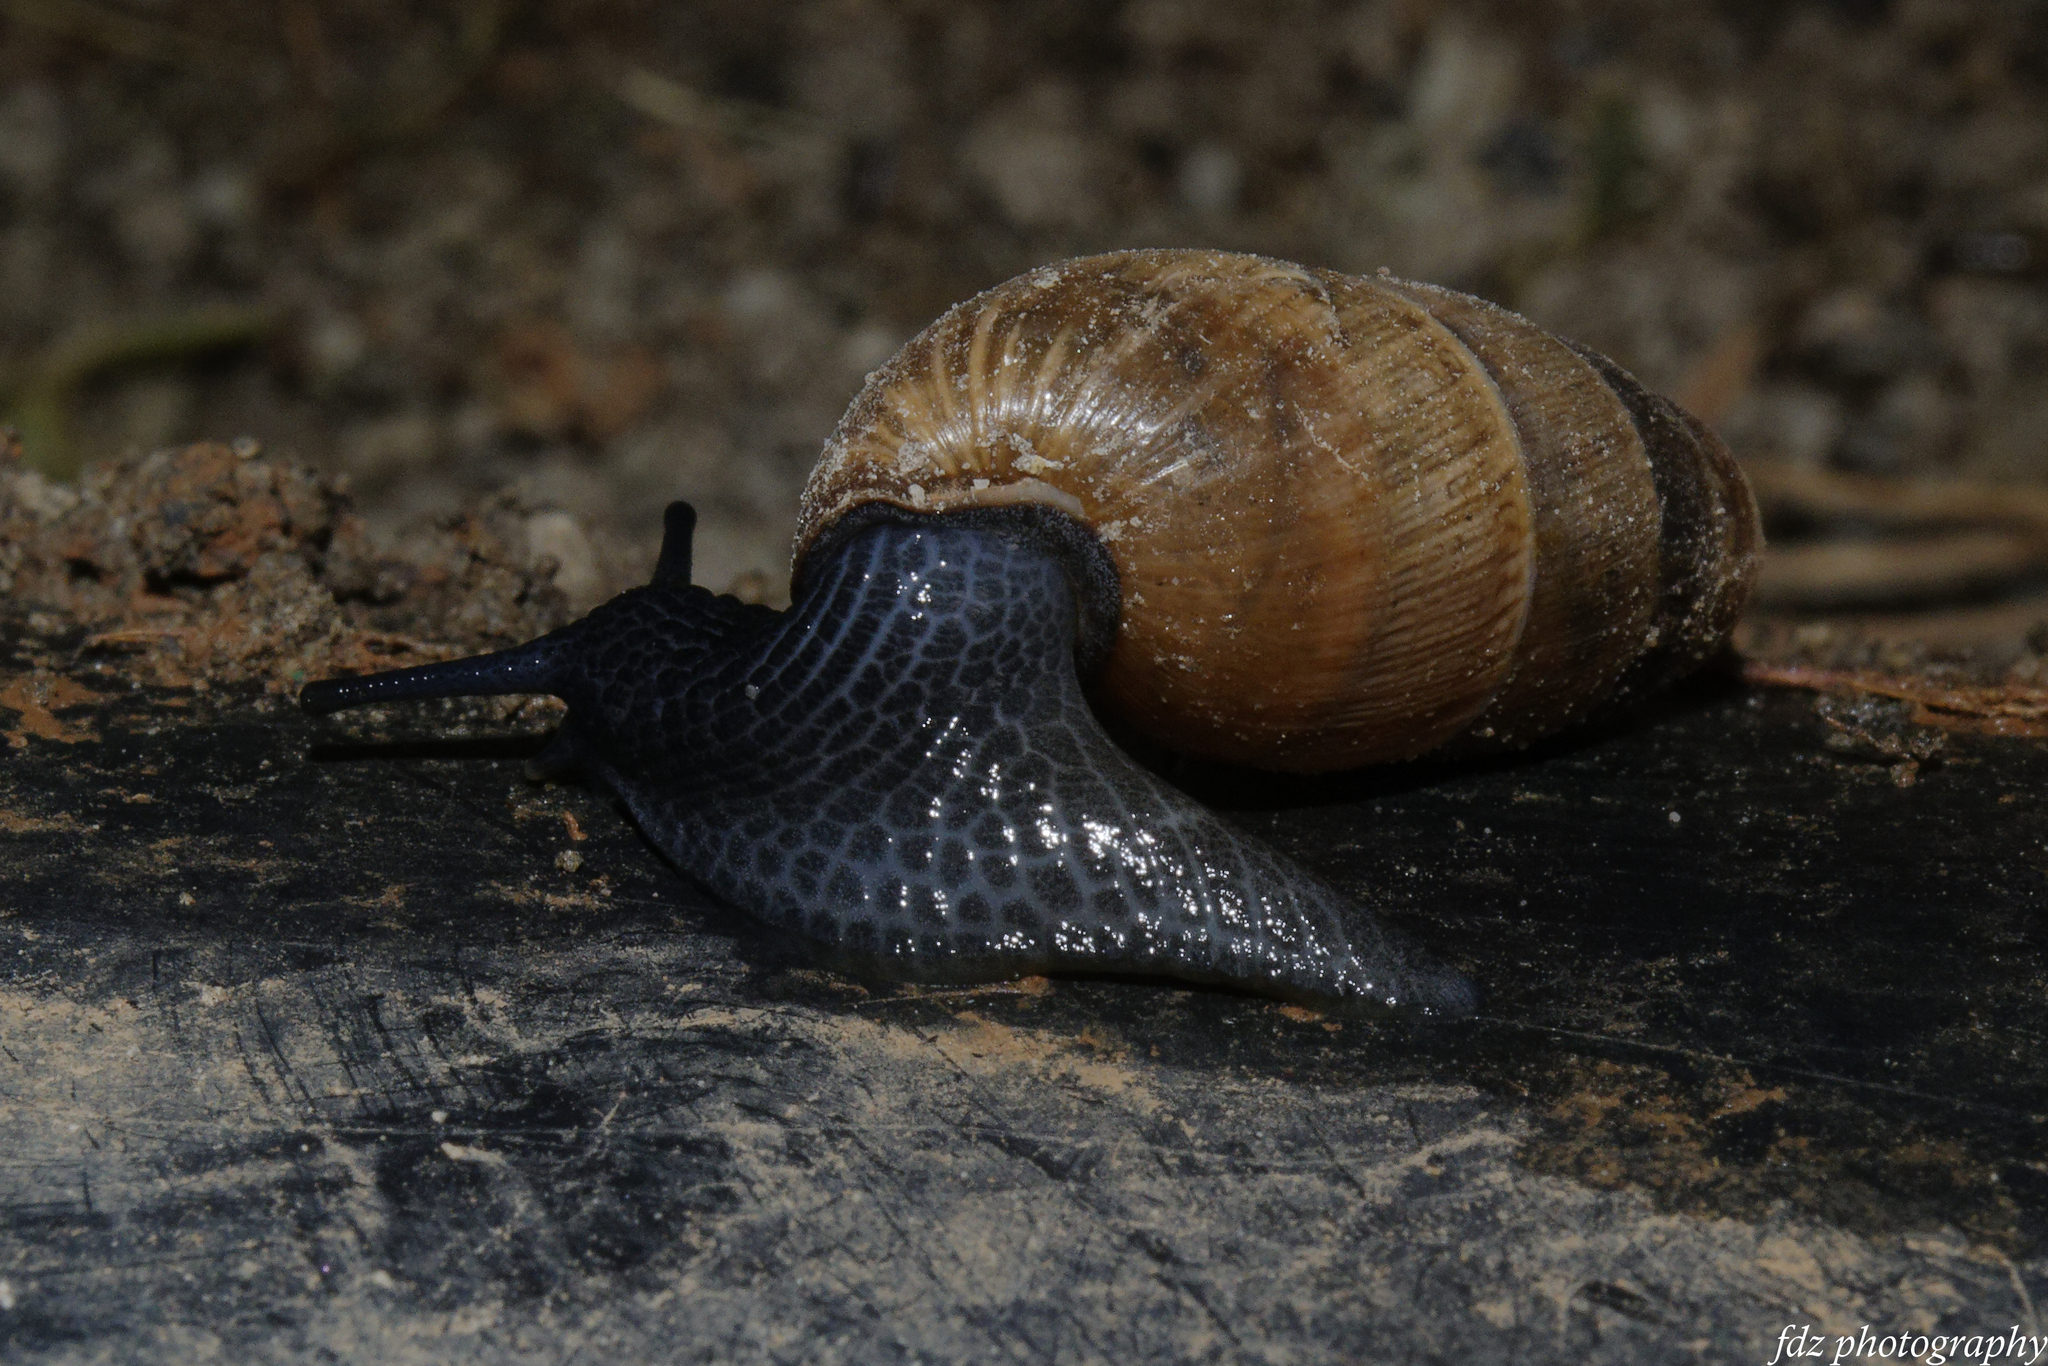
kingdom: Animalia
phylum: Mollusca
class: Gastropoda
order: Stylommatophora
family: Achatinidae
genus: Rumina
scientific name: Rumina decollata
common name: Decollate snail
